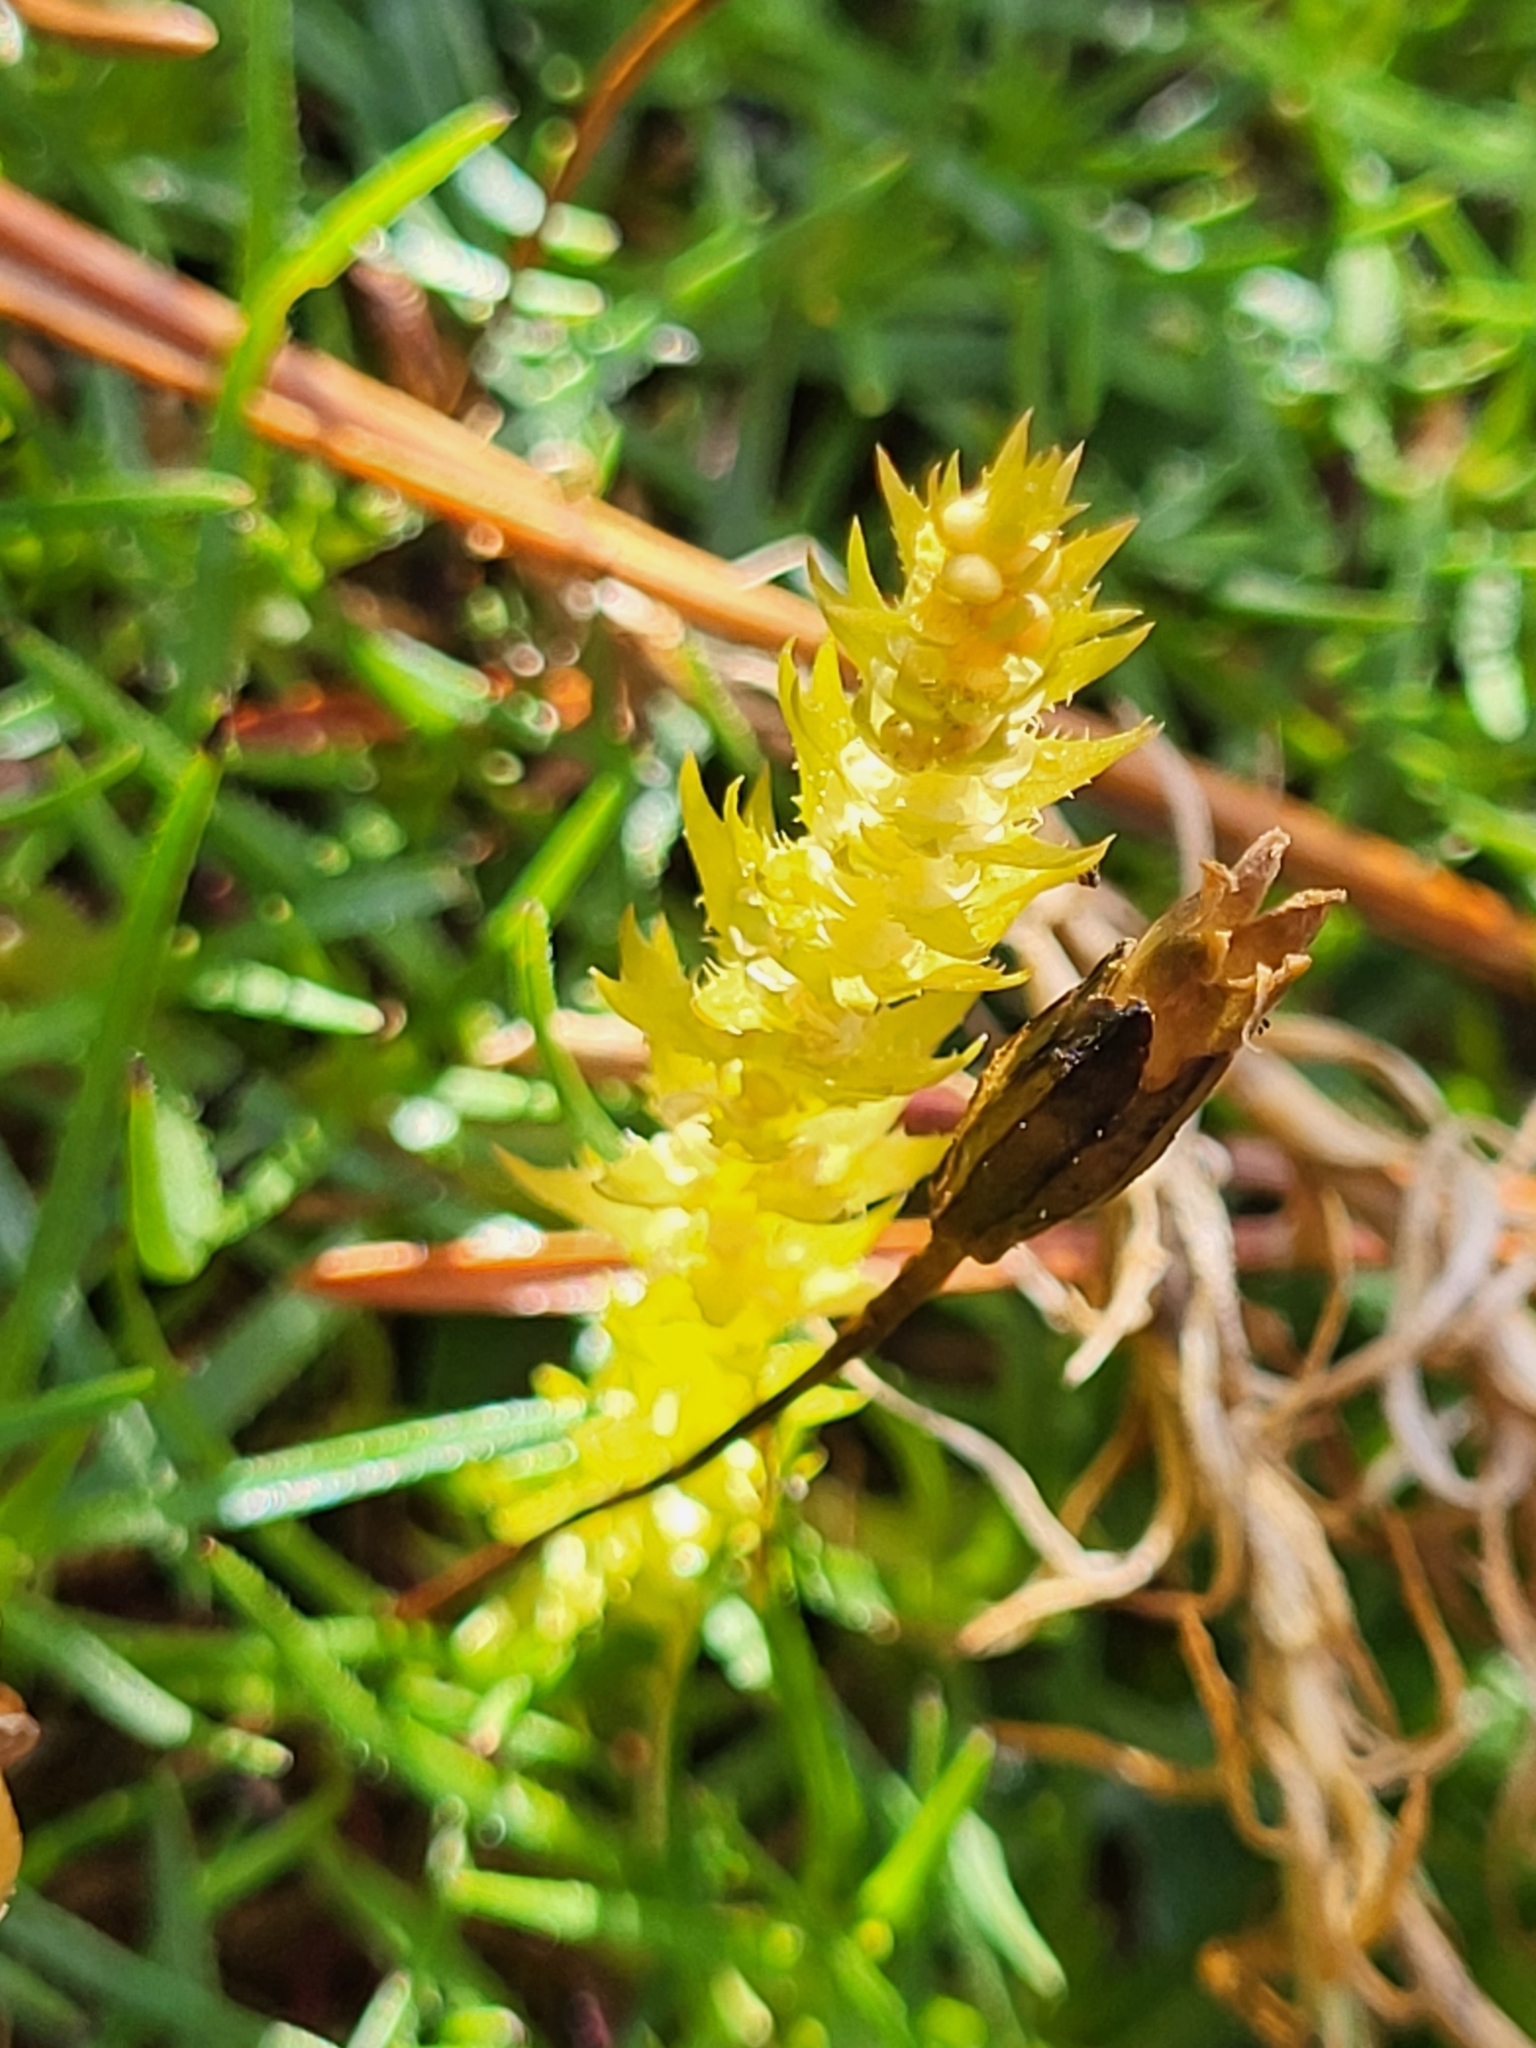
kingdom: Plantae
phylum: Tracheophyta
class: Lycopodiopsida
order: Selaginellales
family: Selaginellaceae
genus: Selaginella
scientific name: Selaginella selaginoides
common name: Prickly mountain-moss
